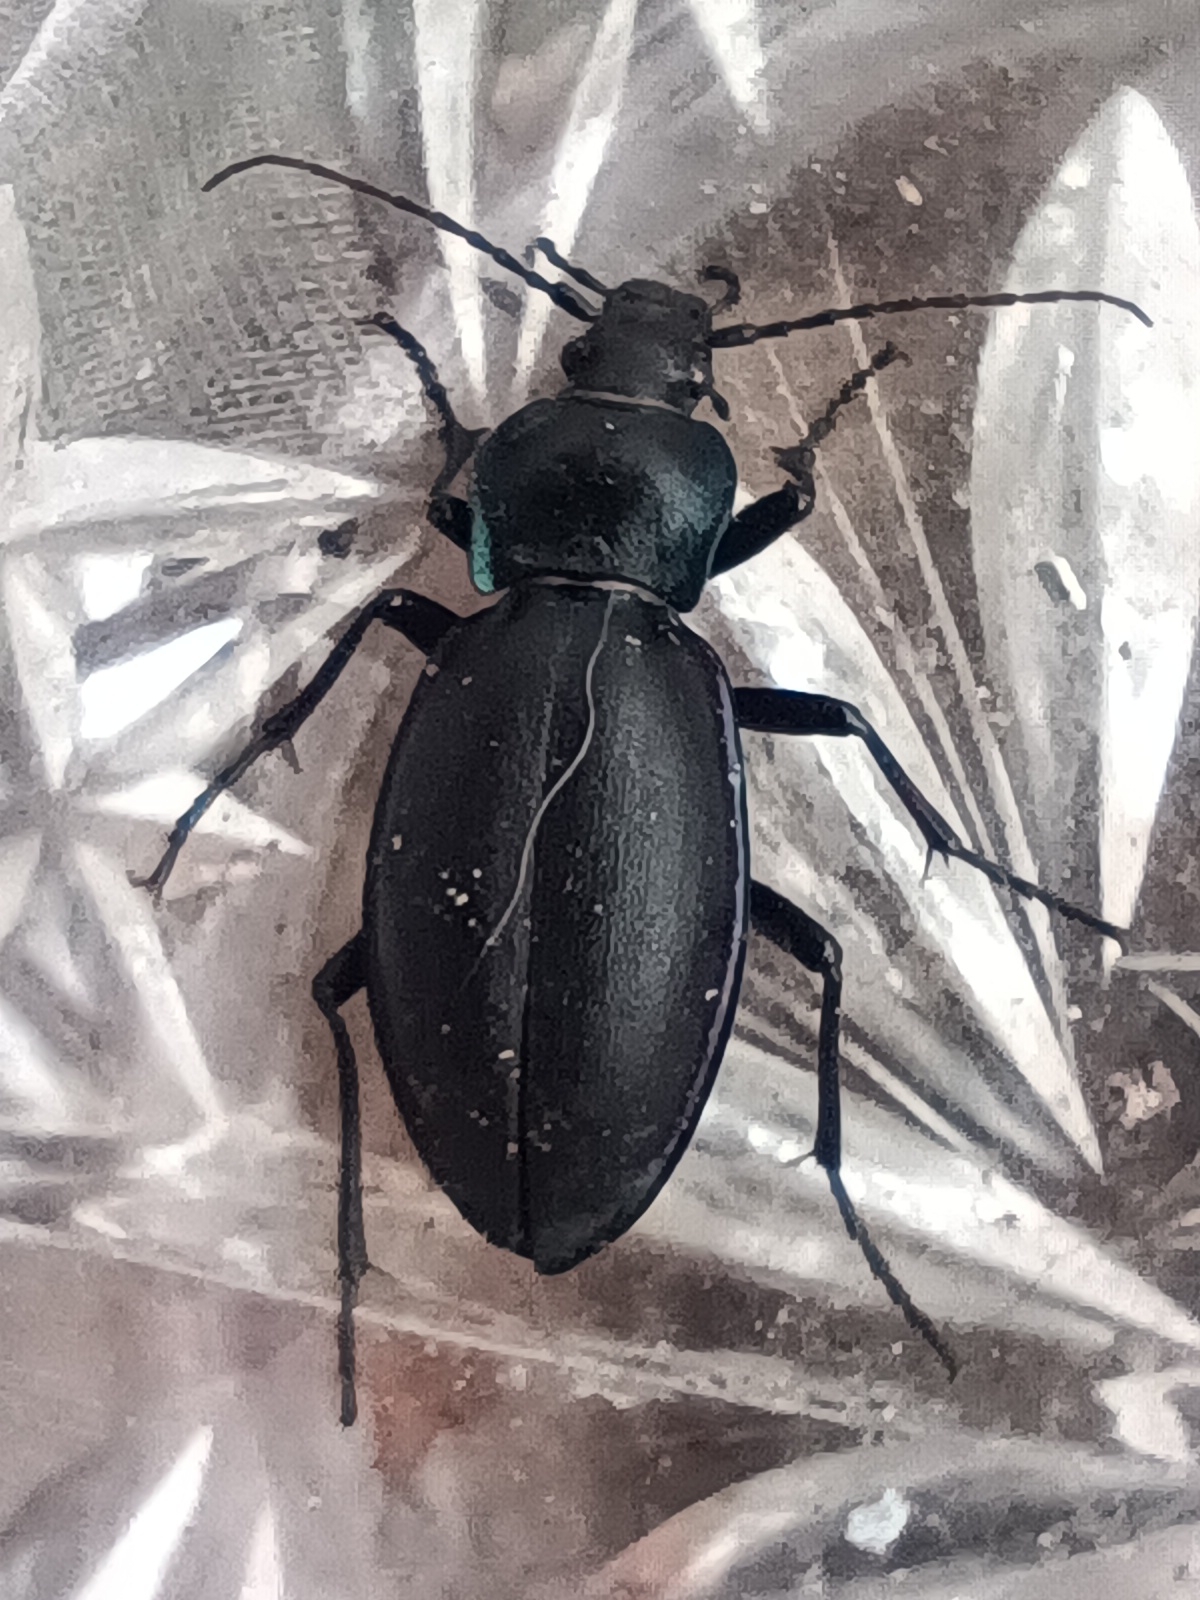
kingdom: Animalia
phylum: Arthropoda
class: Insecta
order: Coleoptera
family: Carabidae
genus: Carabus
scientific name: Carabus violaceus
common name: Violet ground beetle
